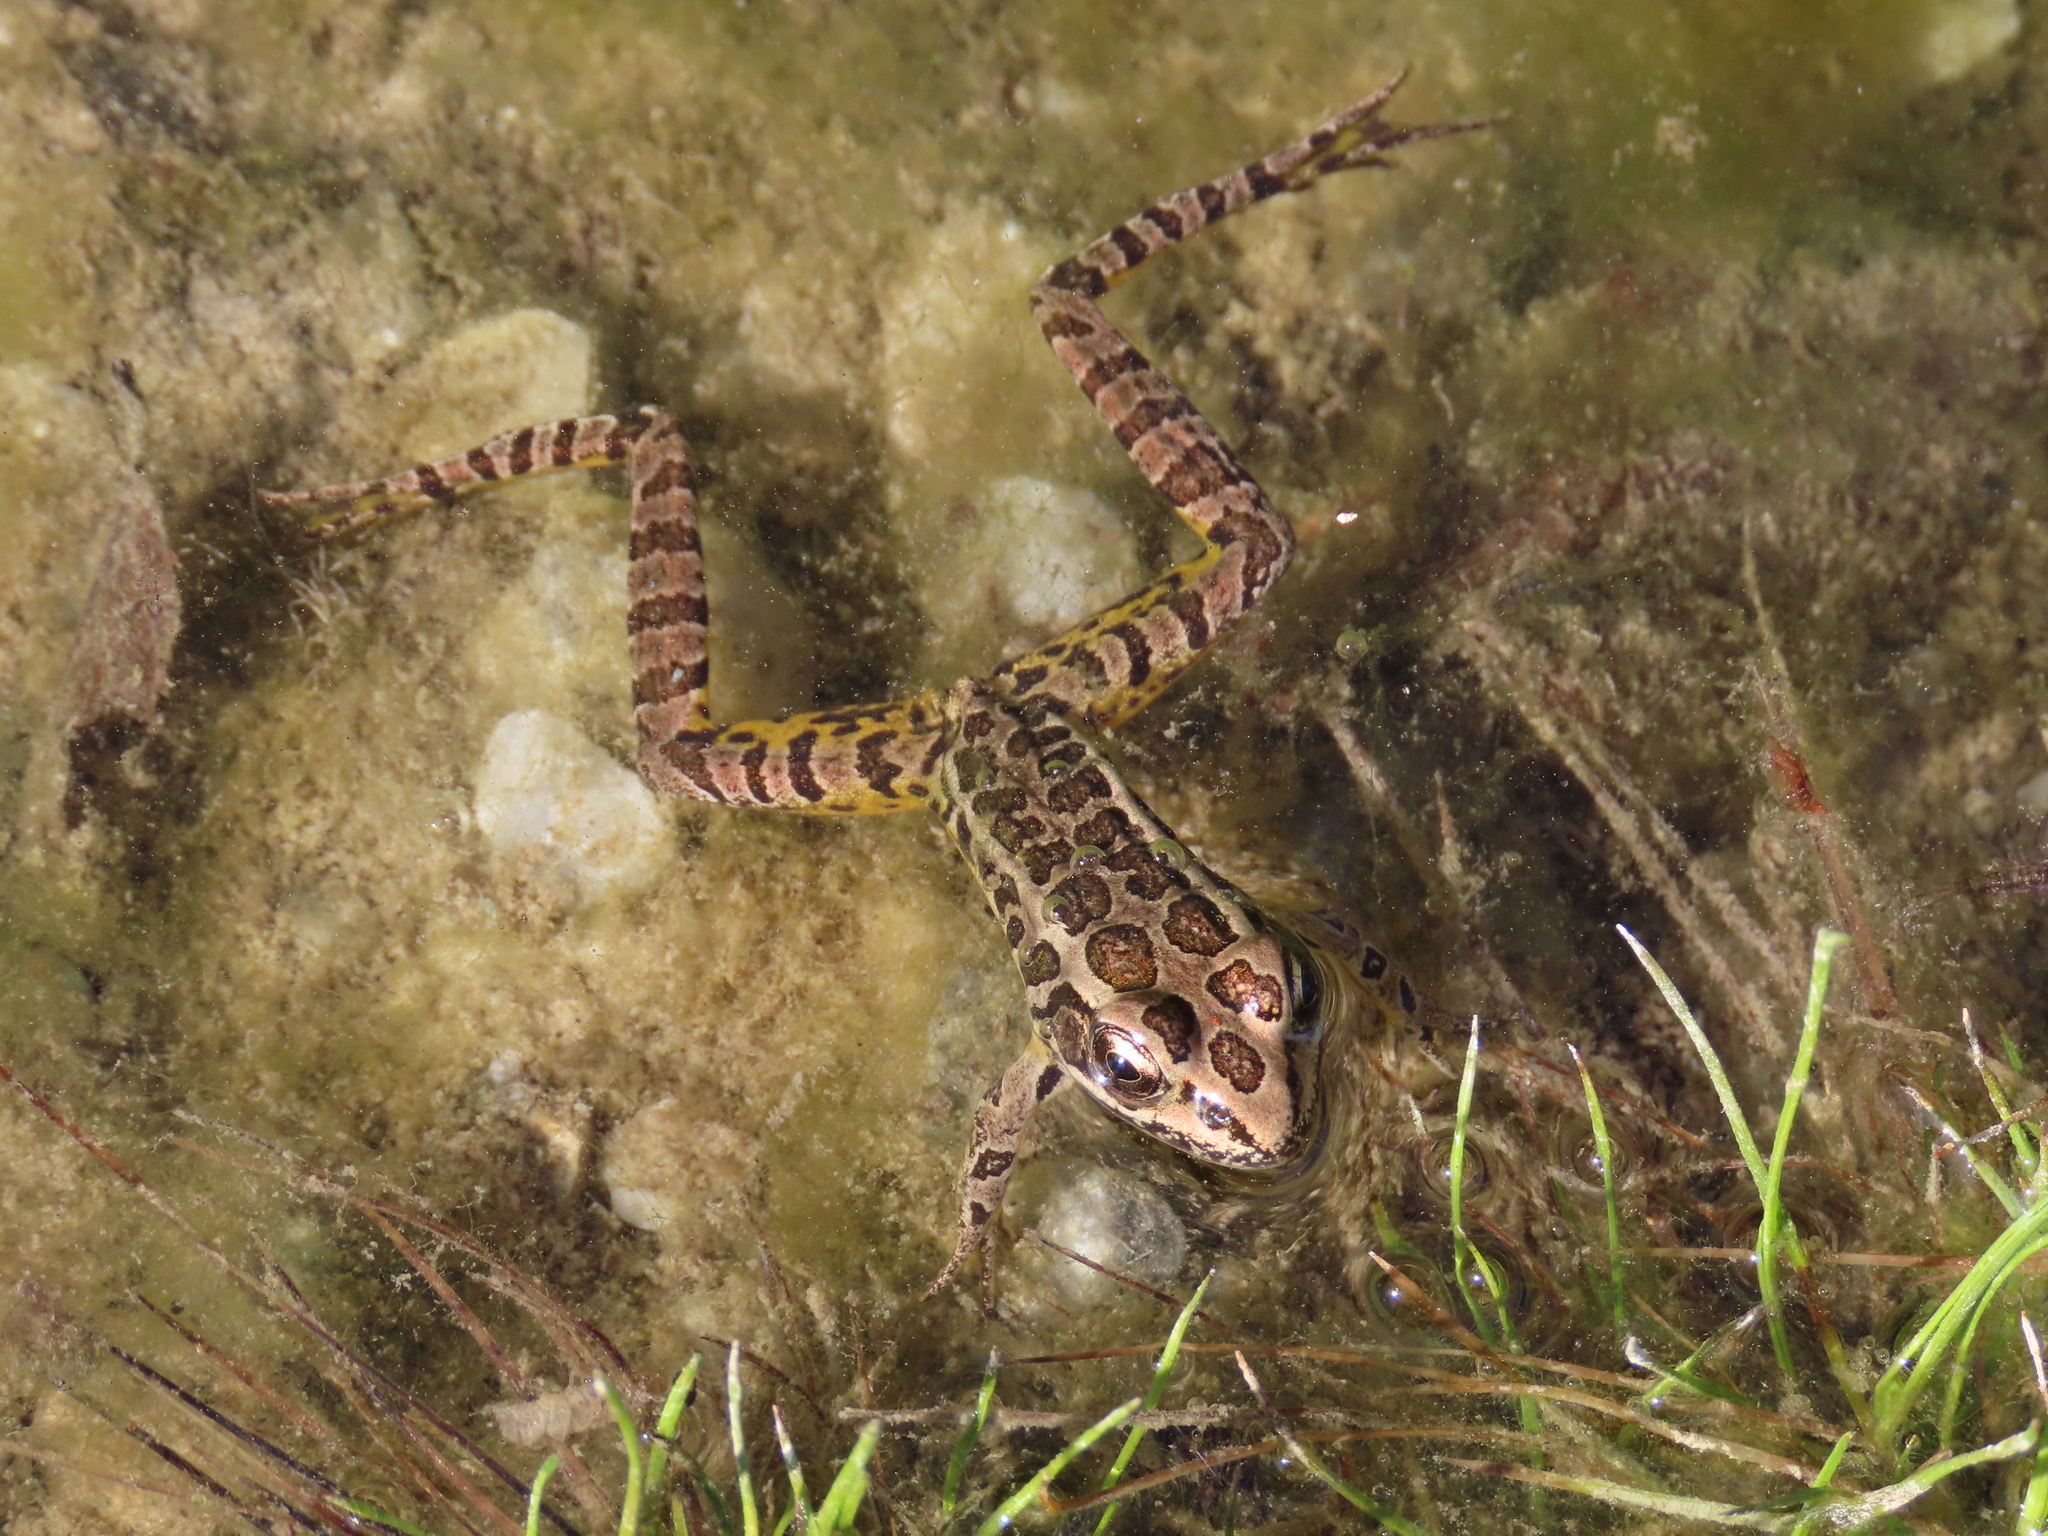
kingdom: Animalia
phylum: Chordata
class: Amphibia
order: Anura
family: Ranidae
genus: Lithobates
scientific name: Lithobates palustris
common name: Pickerel frog
